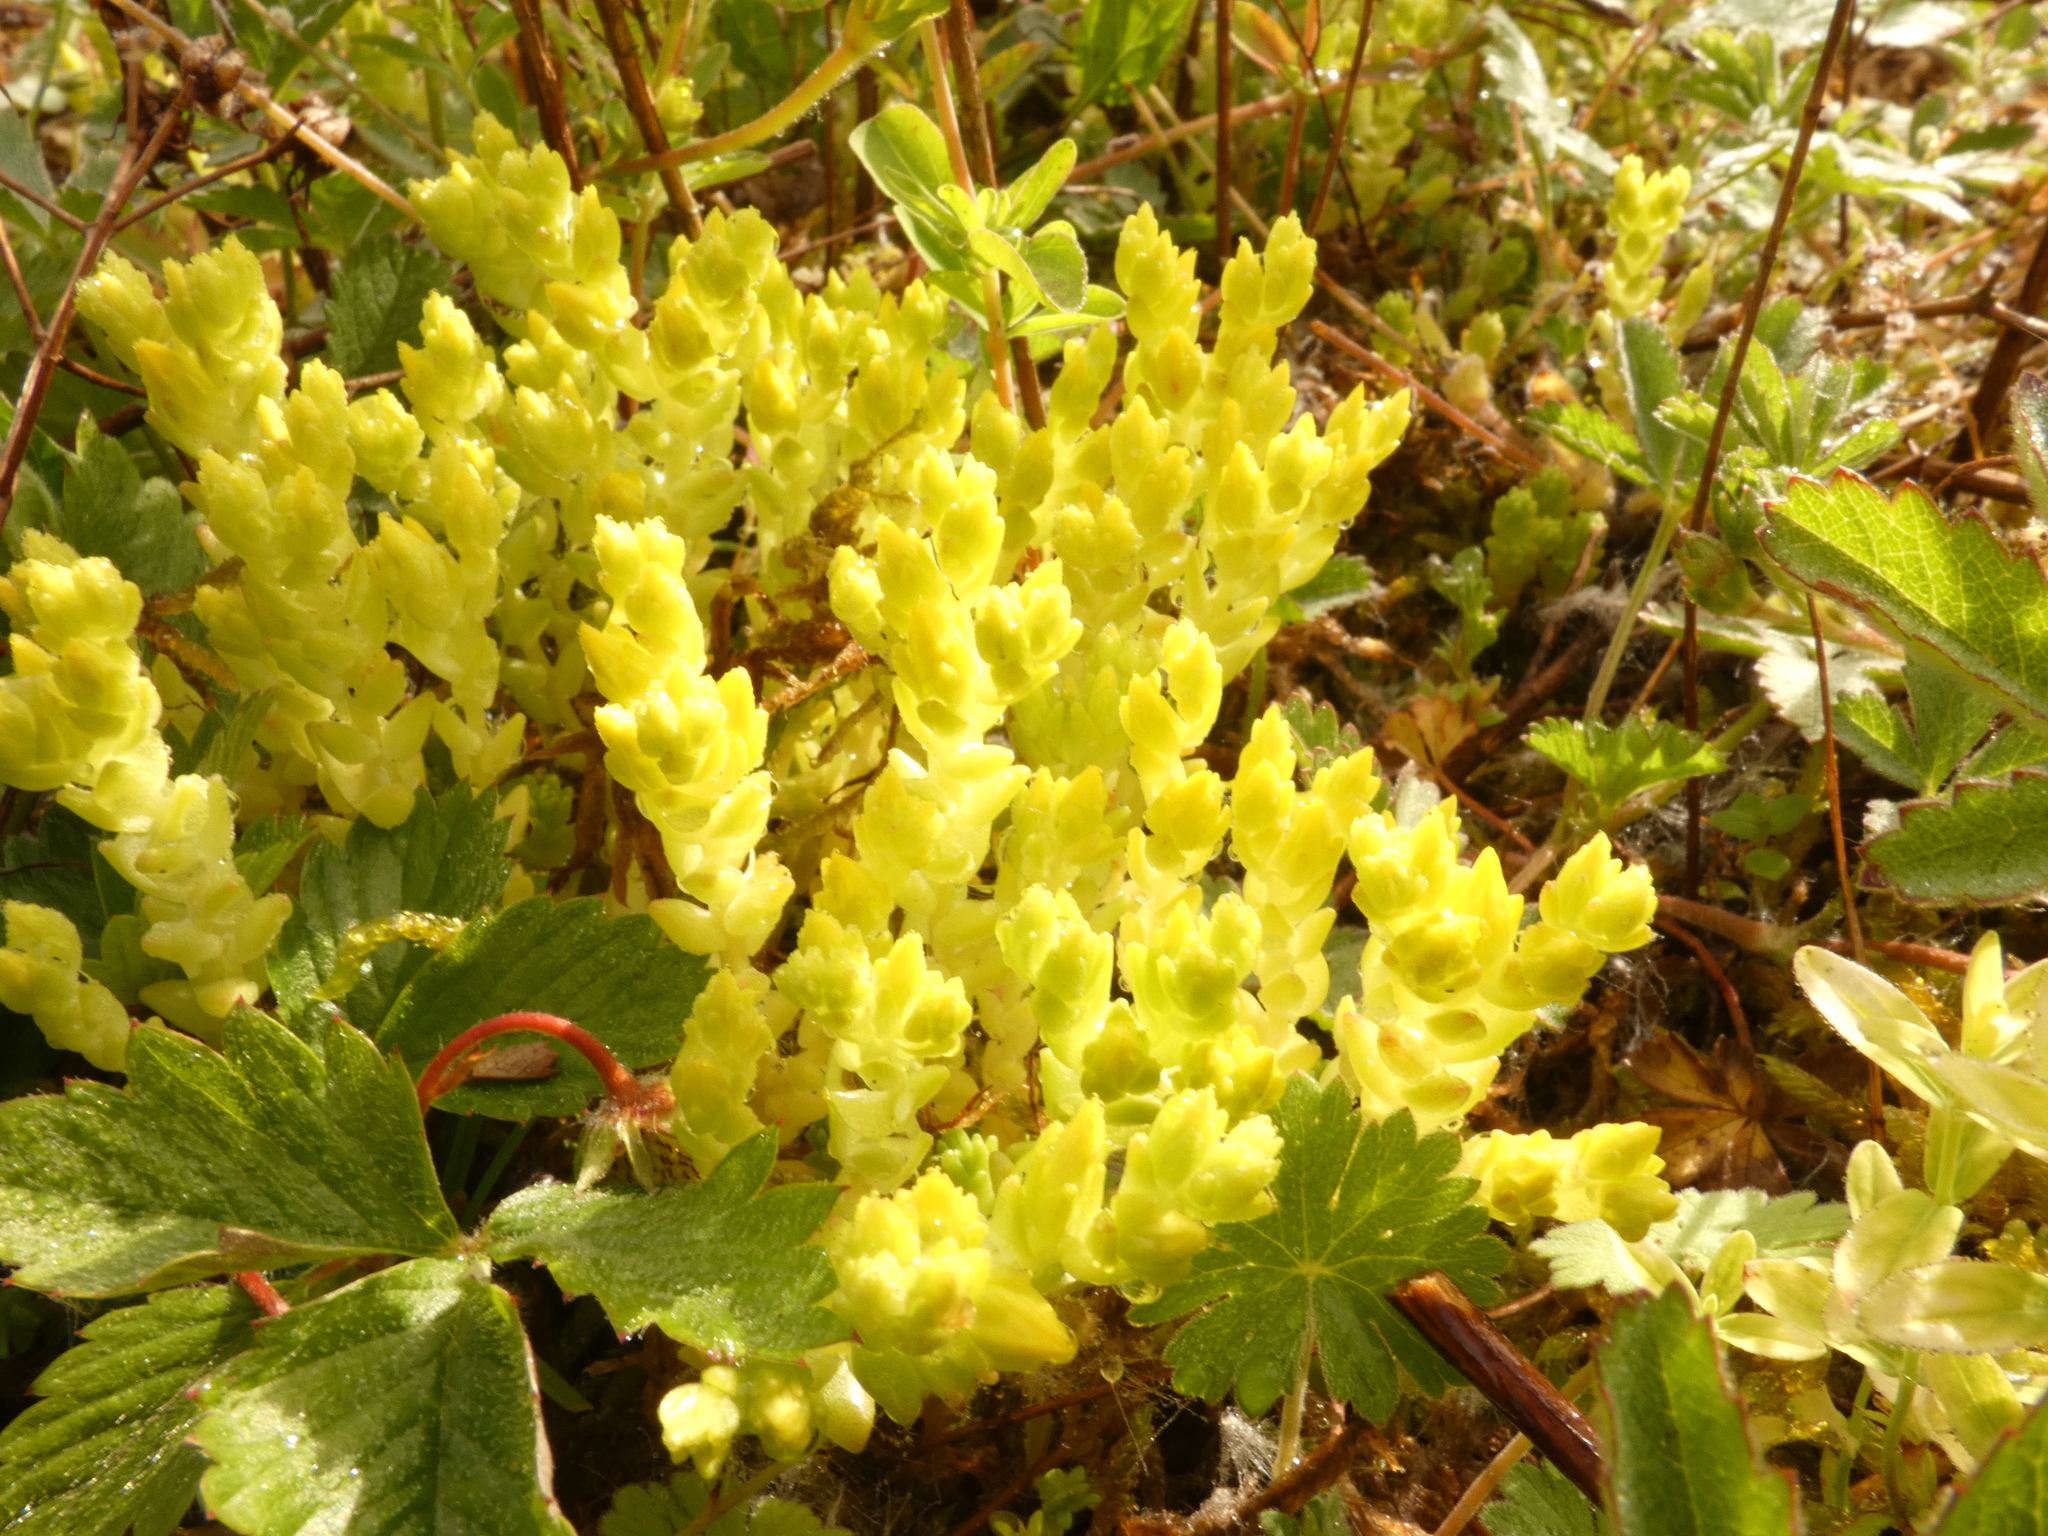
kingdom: Plantae
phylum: Tracheophyta
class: Magnoliopsida
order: Saxifragales
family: Crassulaceae
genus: Sedum
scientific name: Sedum acre
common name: Biting stonecrop
